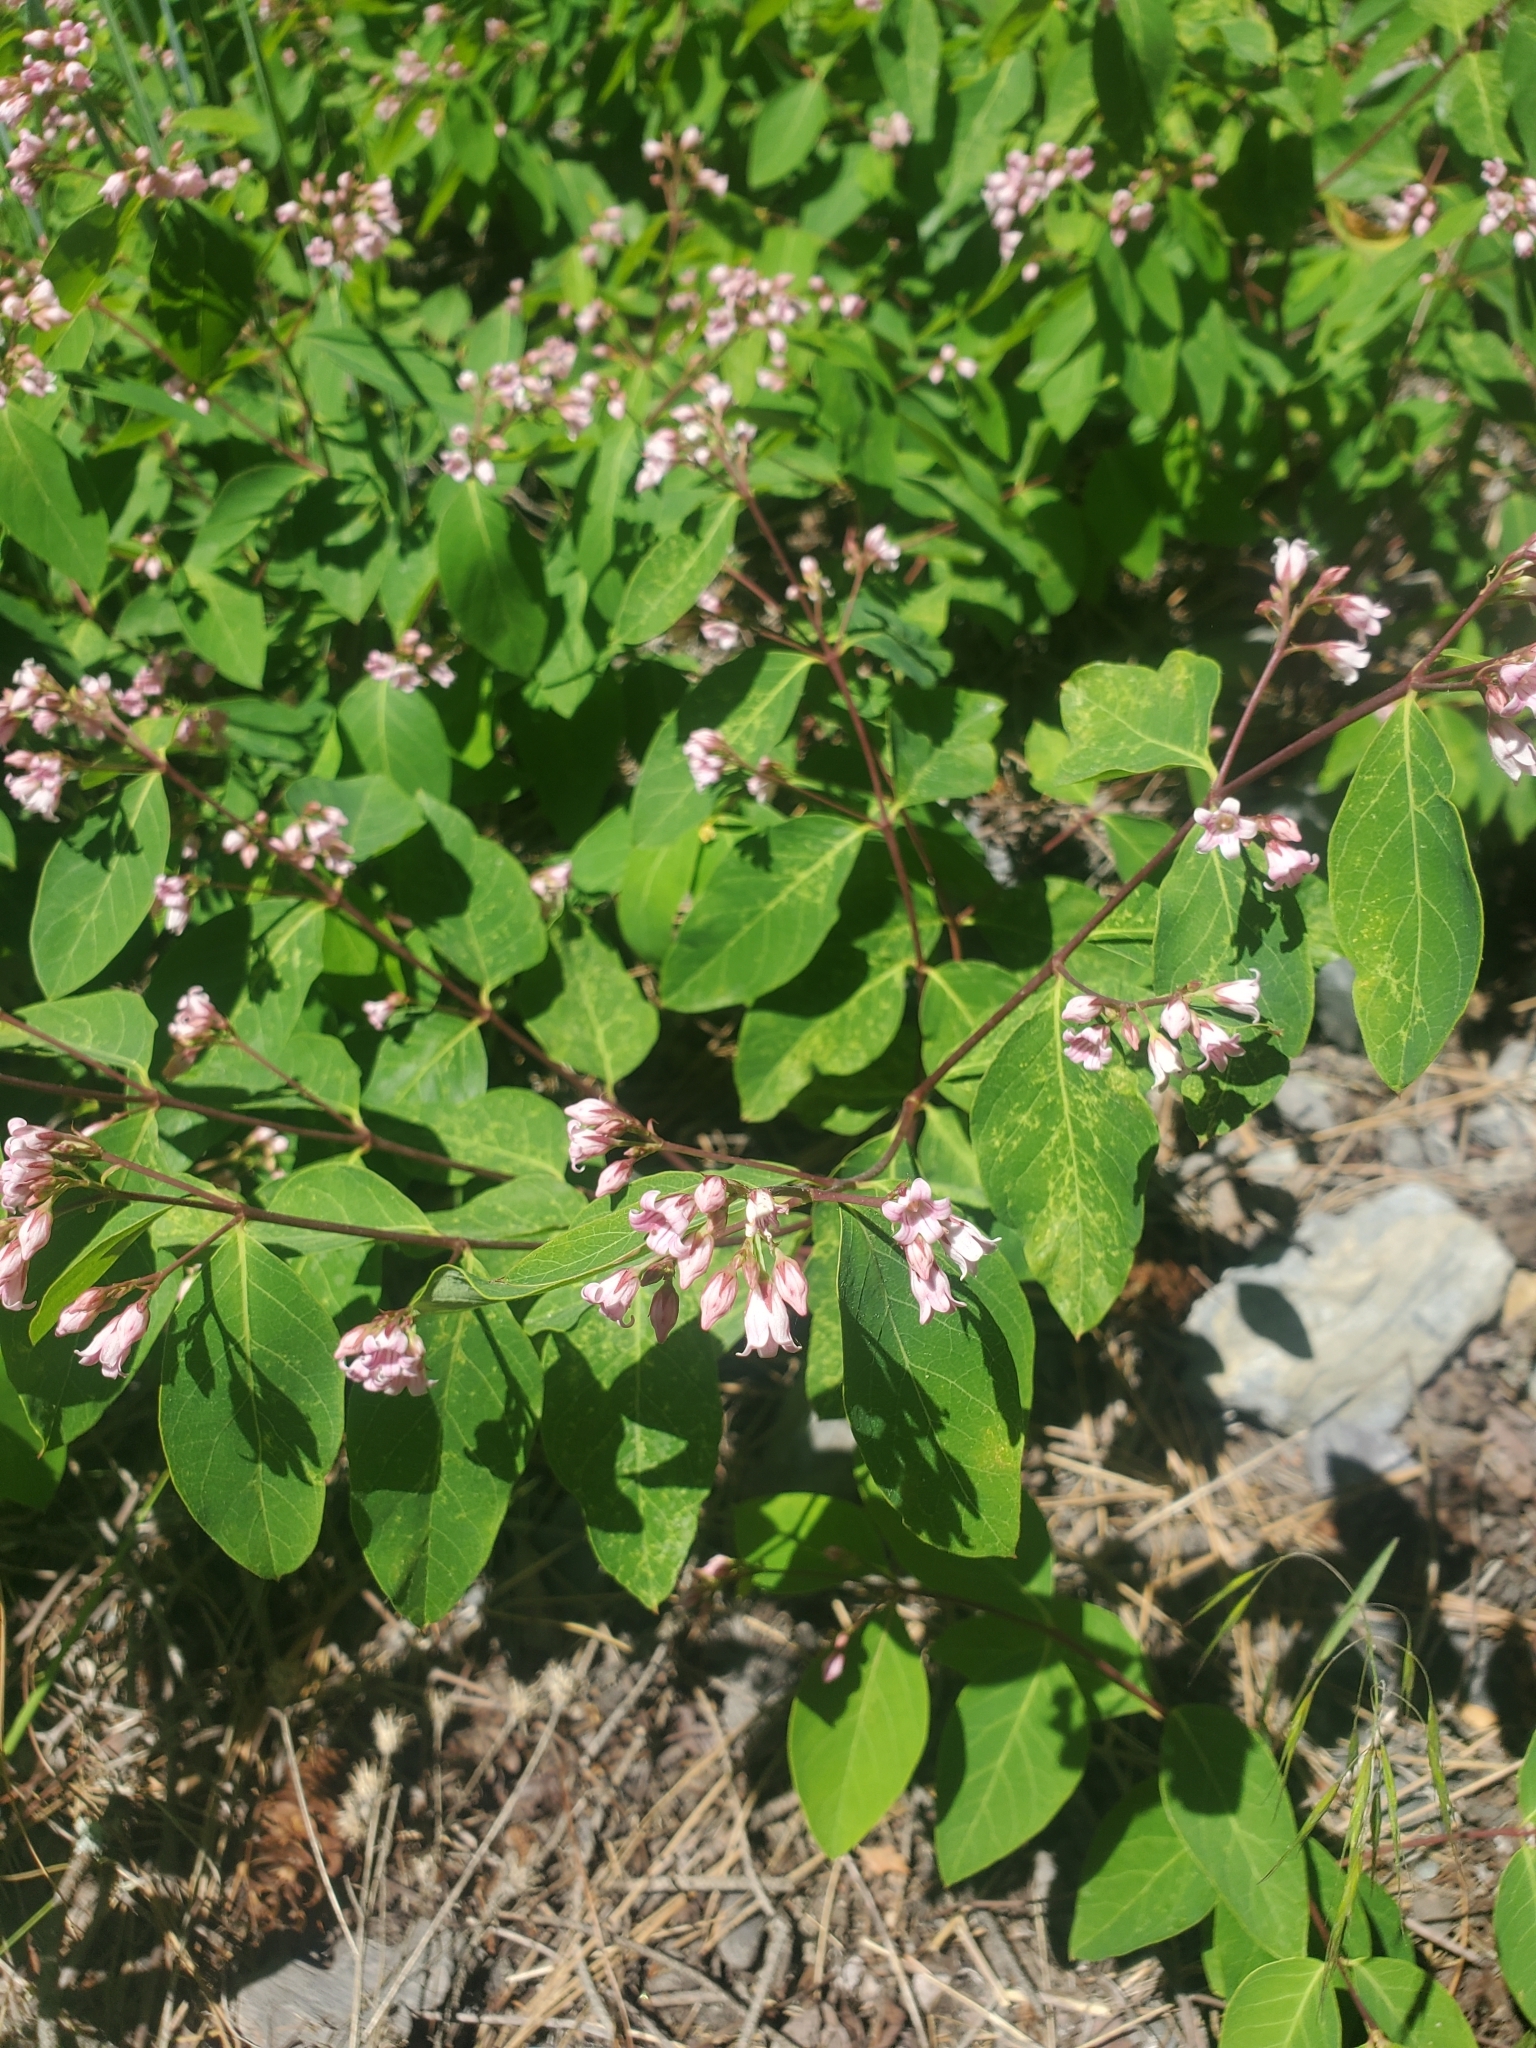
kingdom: Plantae
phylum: Tracheophyta
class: Magnoliopsida
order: Gentianales
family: Apocynaceae
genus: Apocynum
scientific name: Apocynum androsaemifolium
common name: Spreading dogbane
